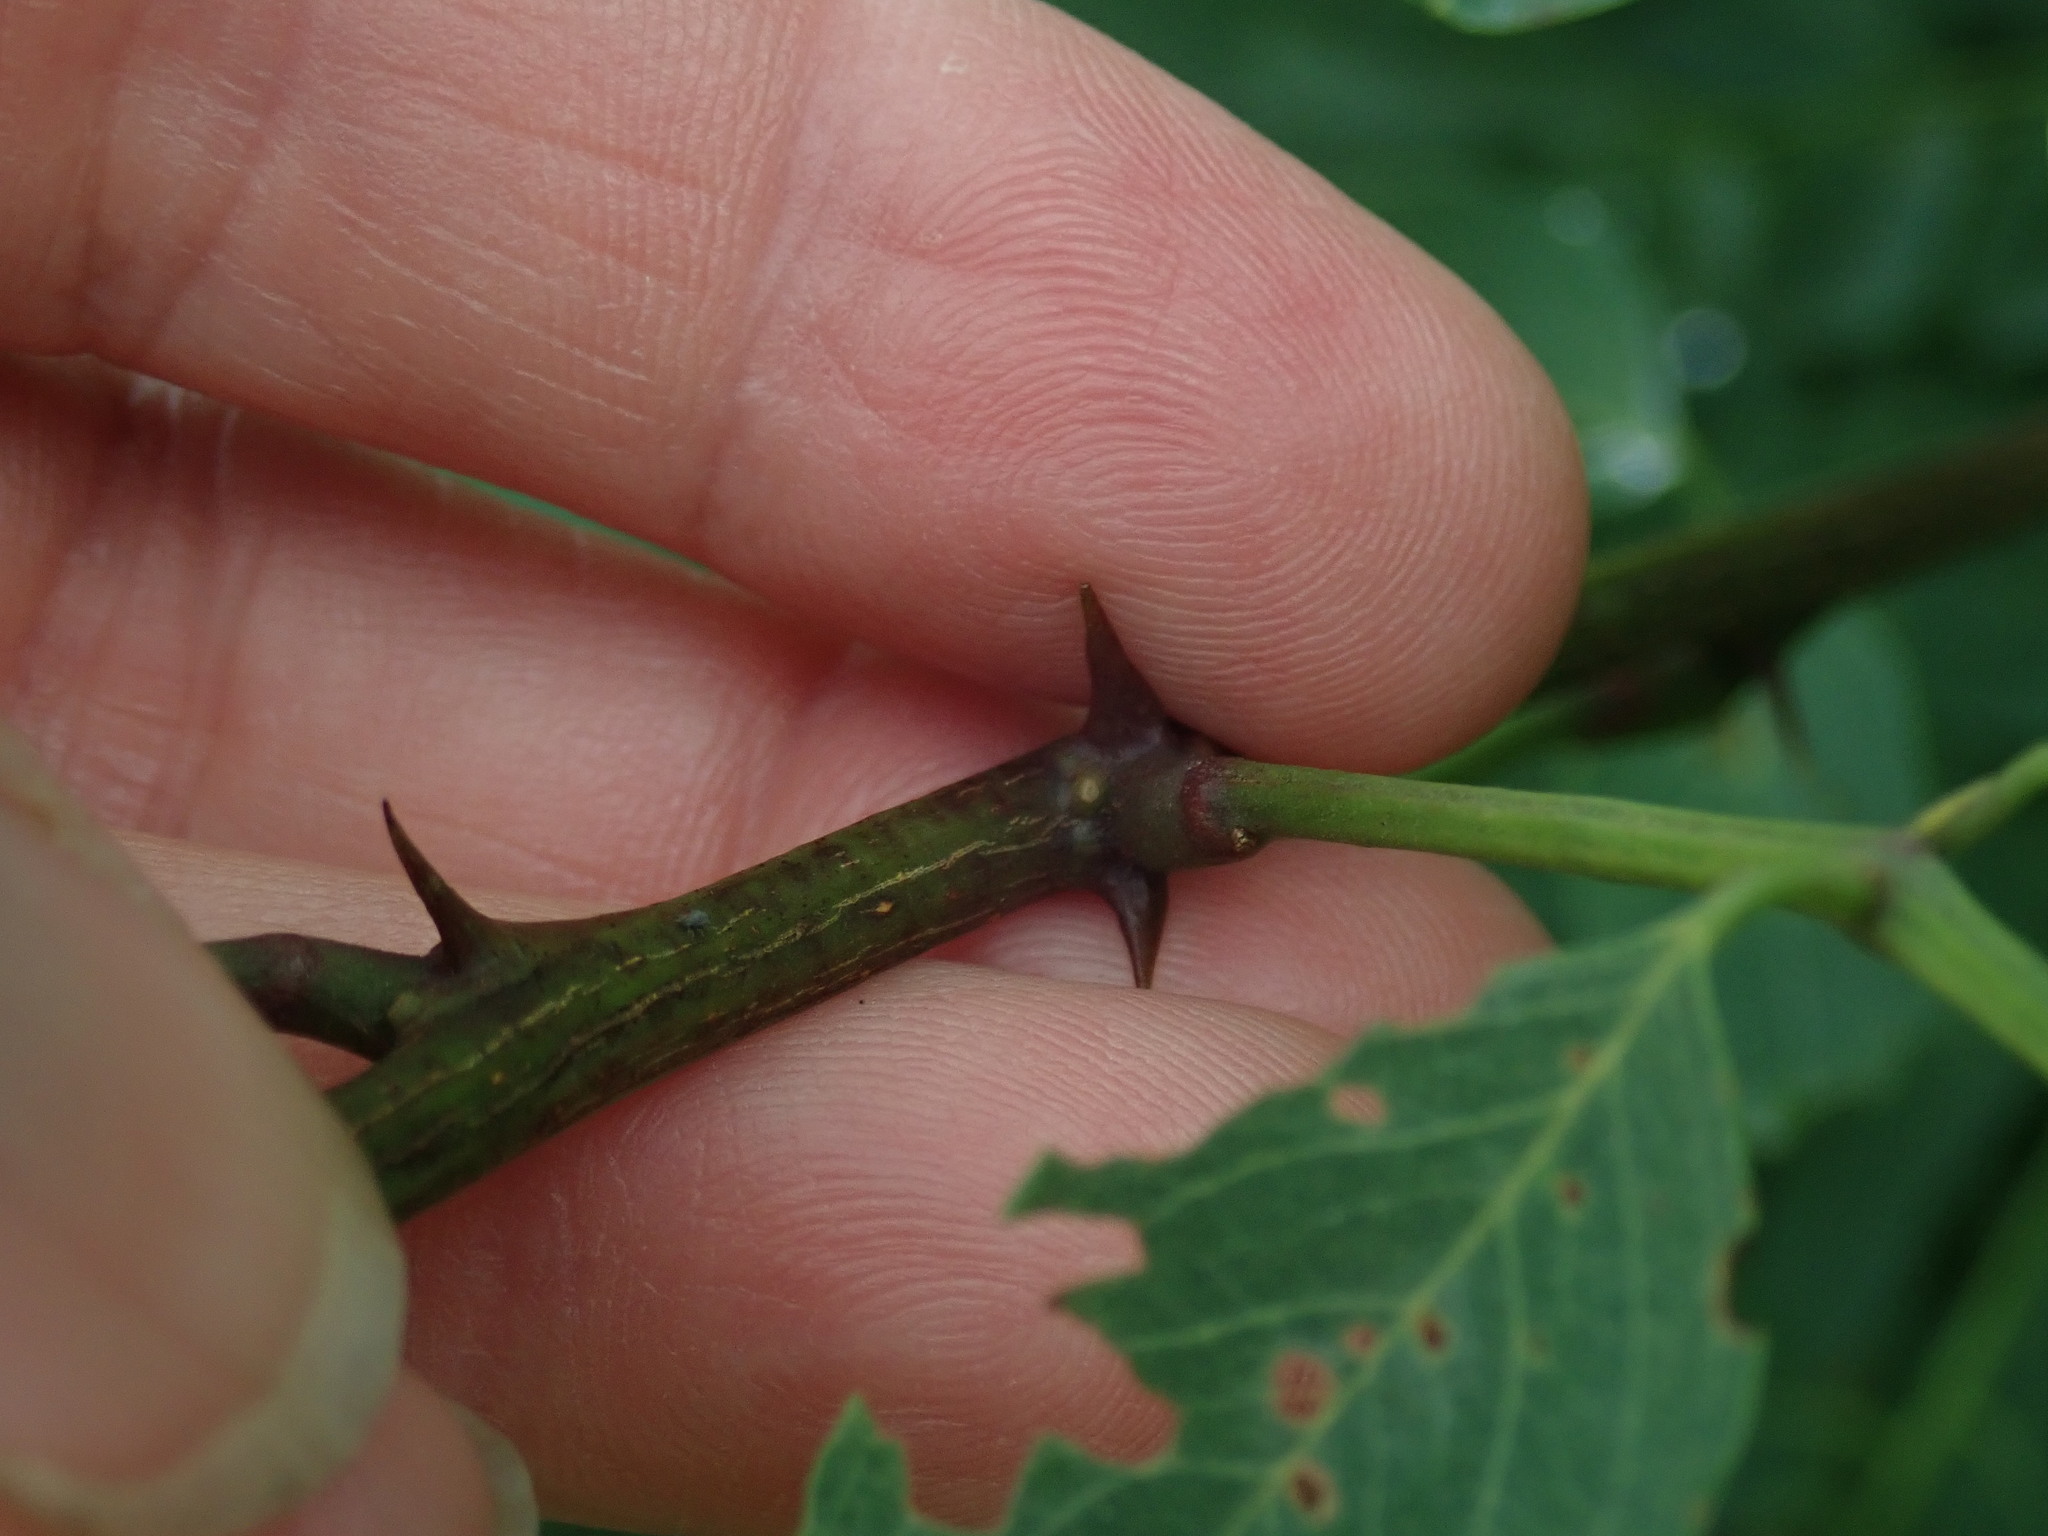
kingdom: Plantae
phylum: Tracheophyta
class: Magnoliopsida
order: Fabales
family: Fabaceae
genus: Robinia
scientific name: Robinia pseudoacacia
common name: Black locust
